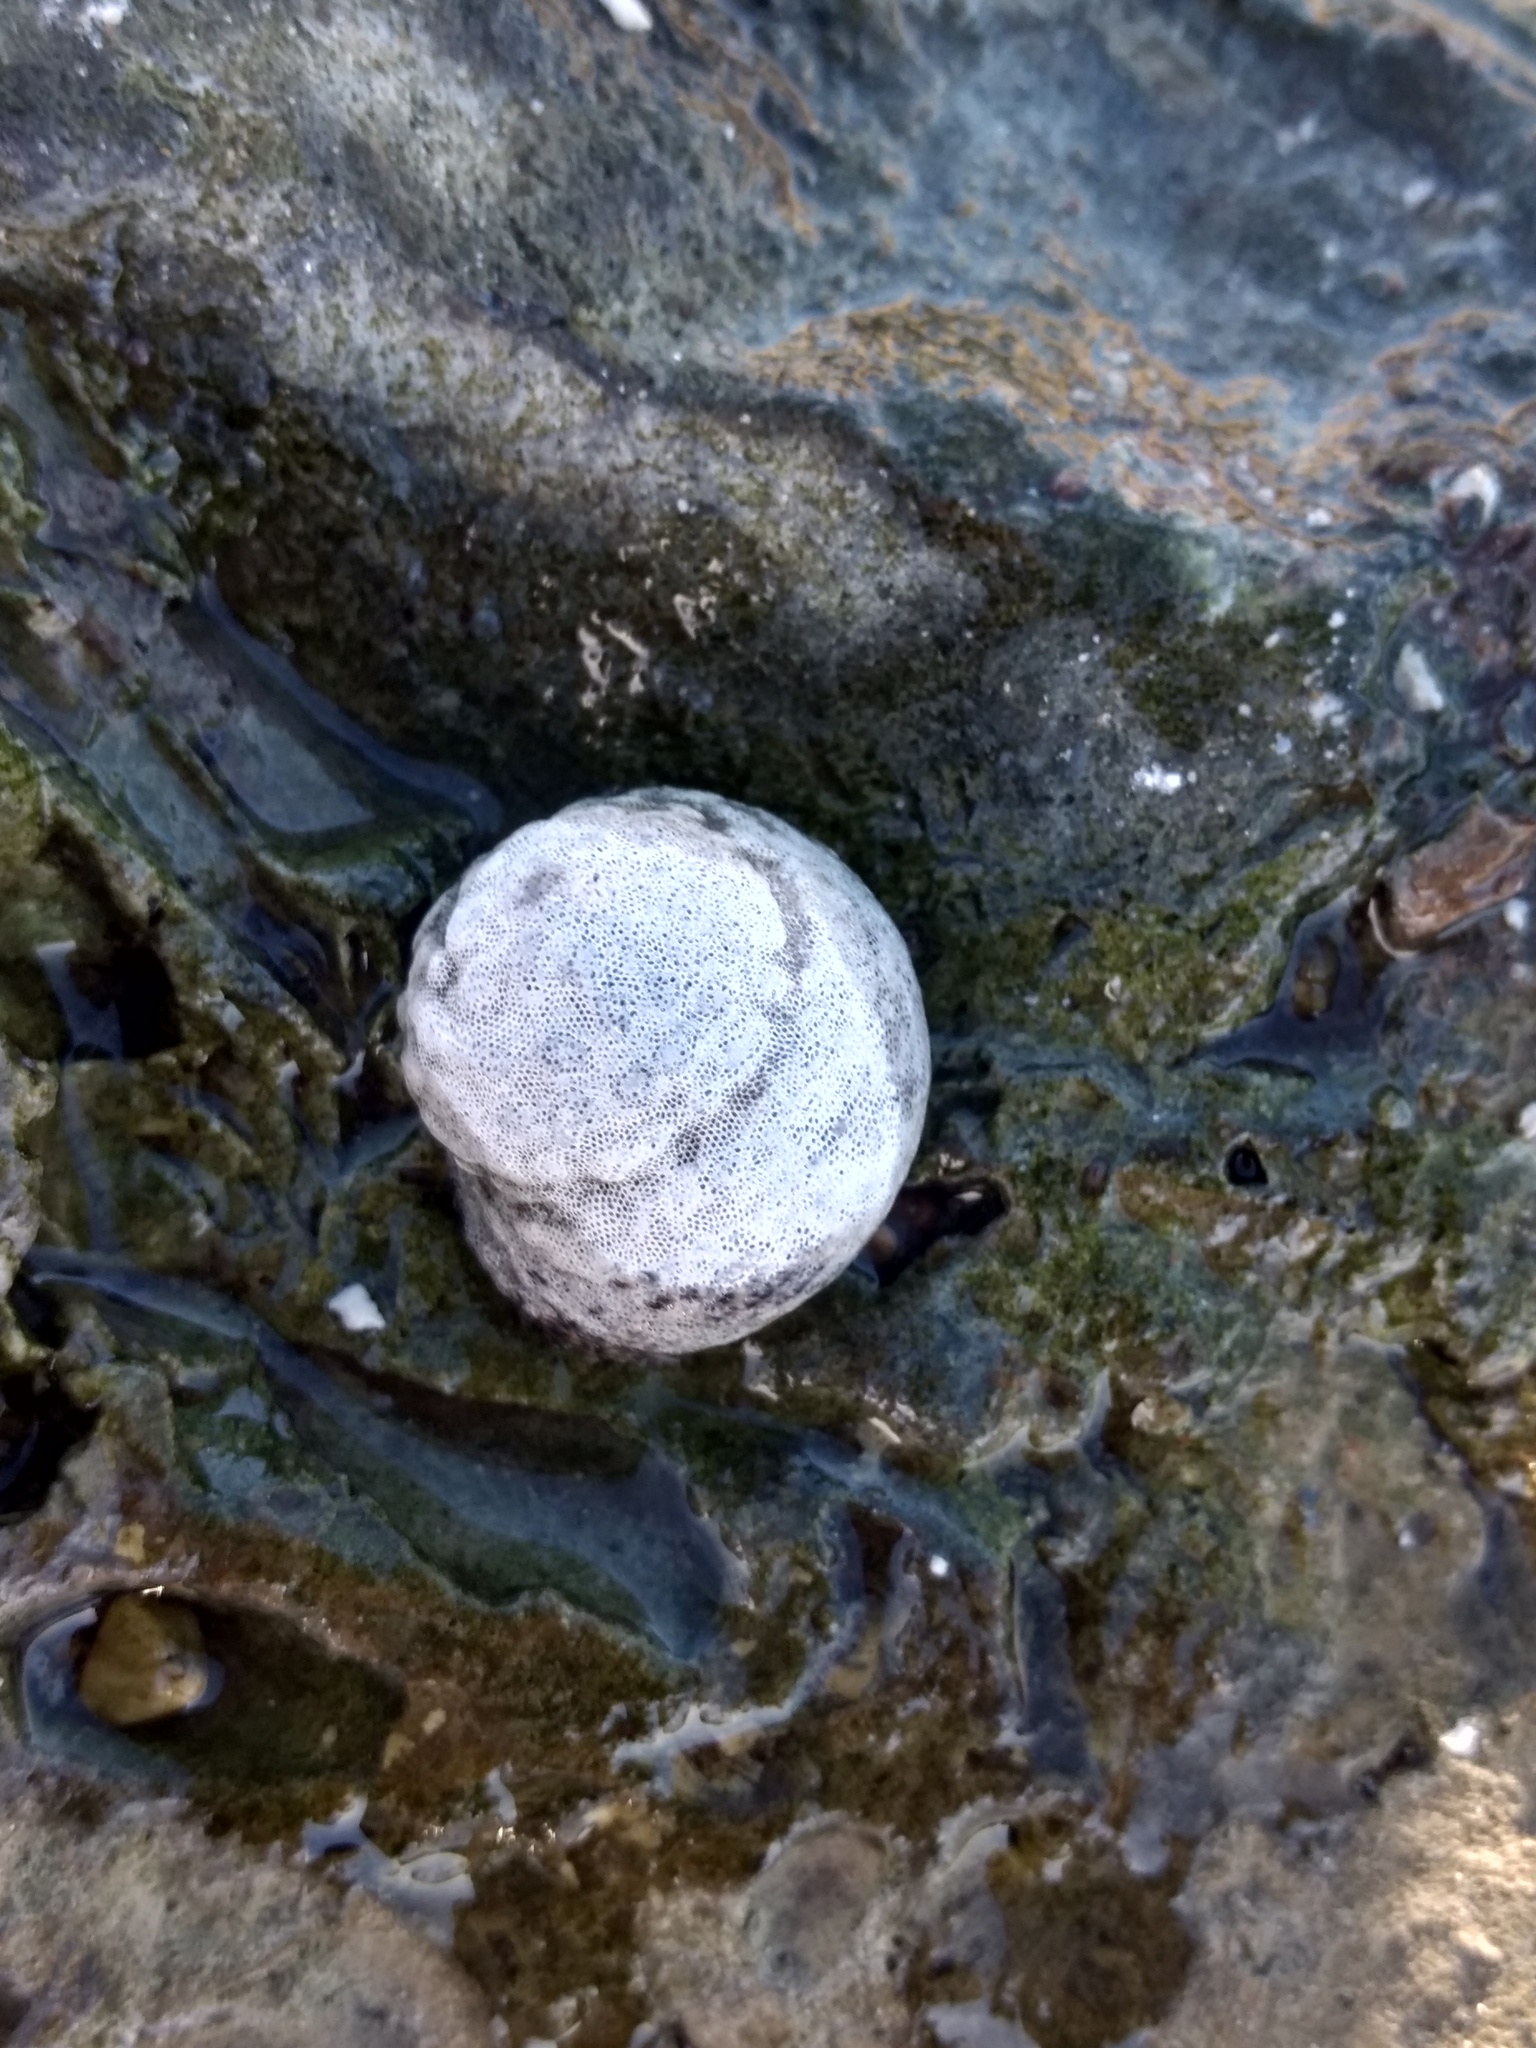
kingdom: Animalia
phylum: Mollusca
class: Gastropoda
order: Trochida
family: Tegulidae
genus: Tegula
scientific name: Tegula eiseni
